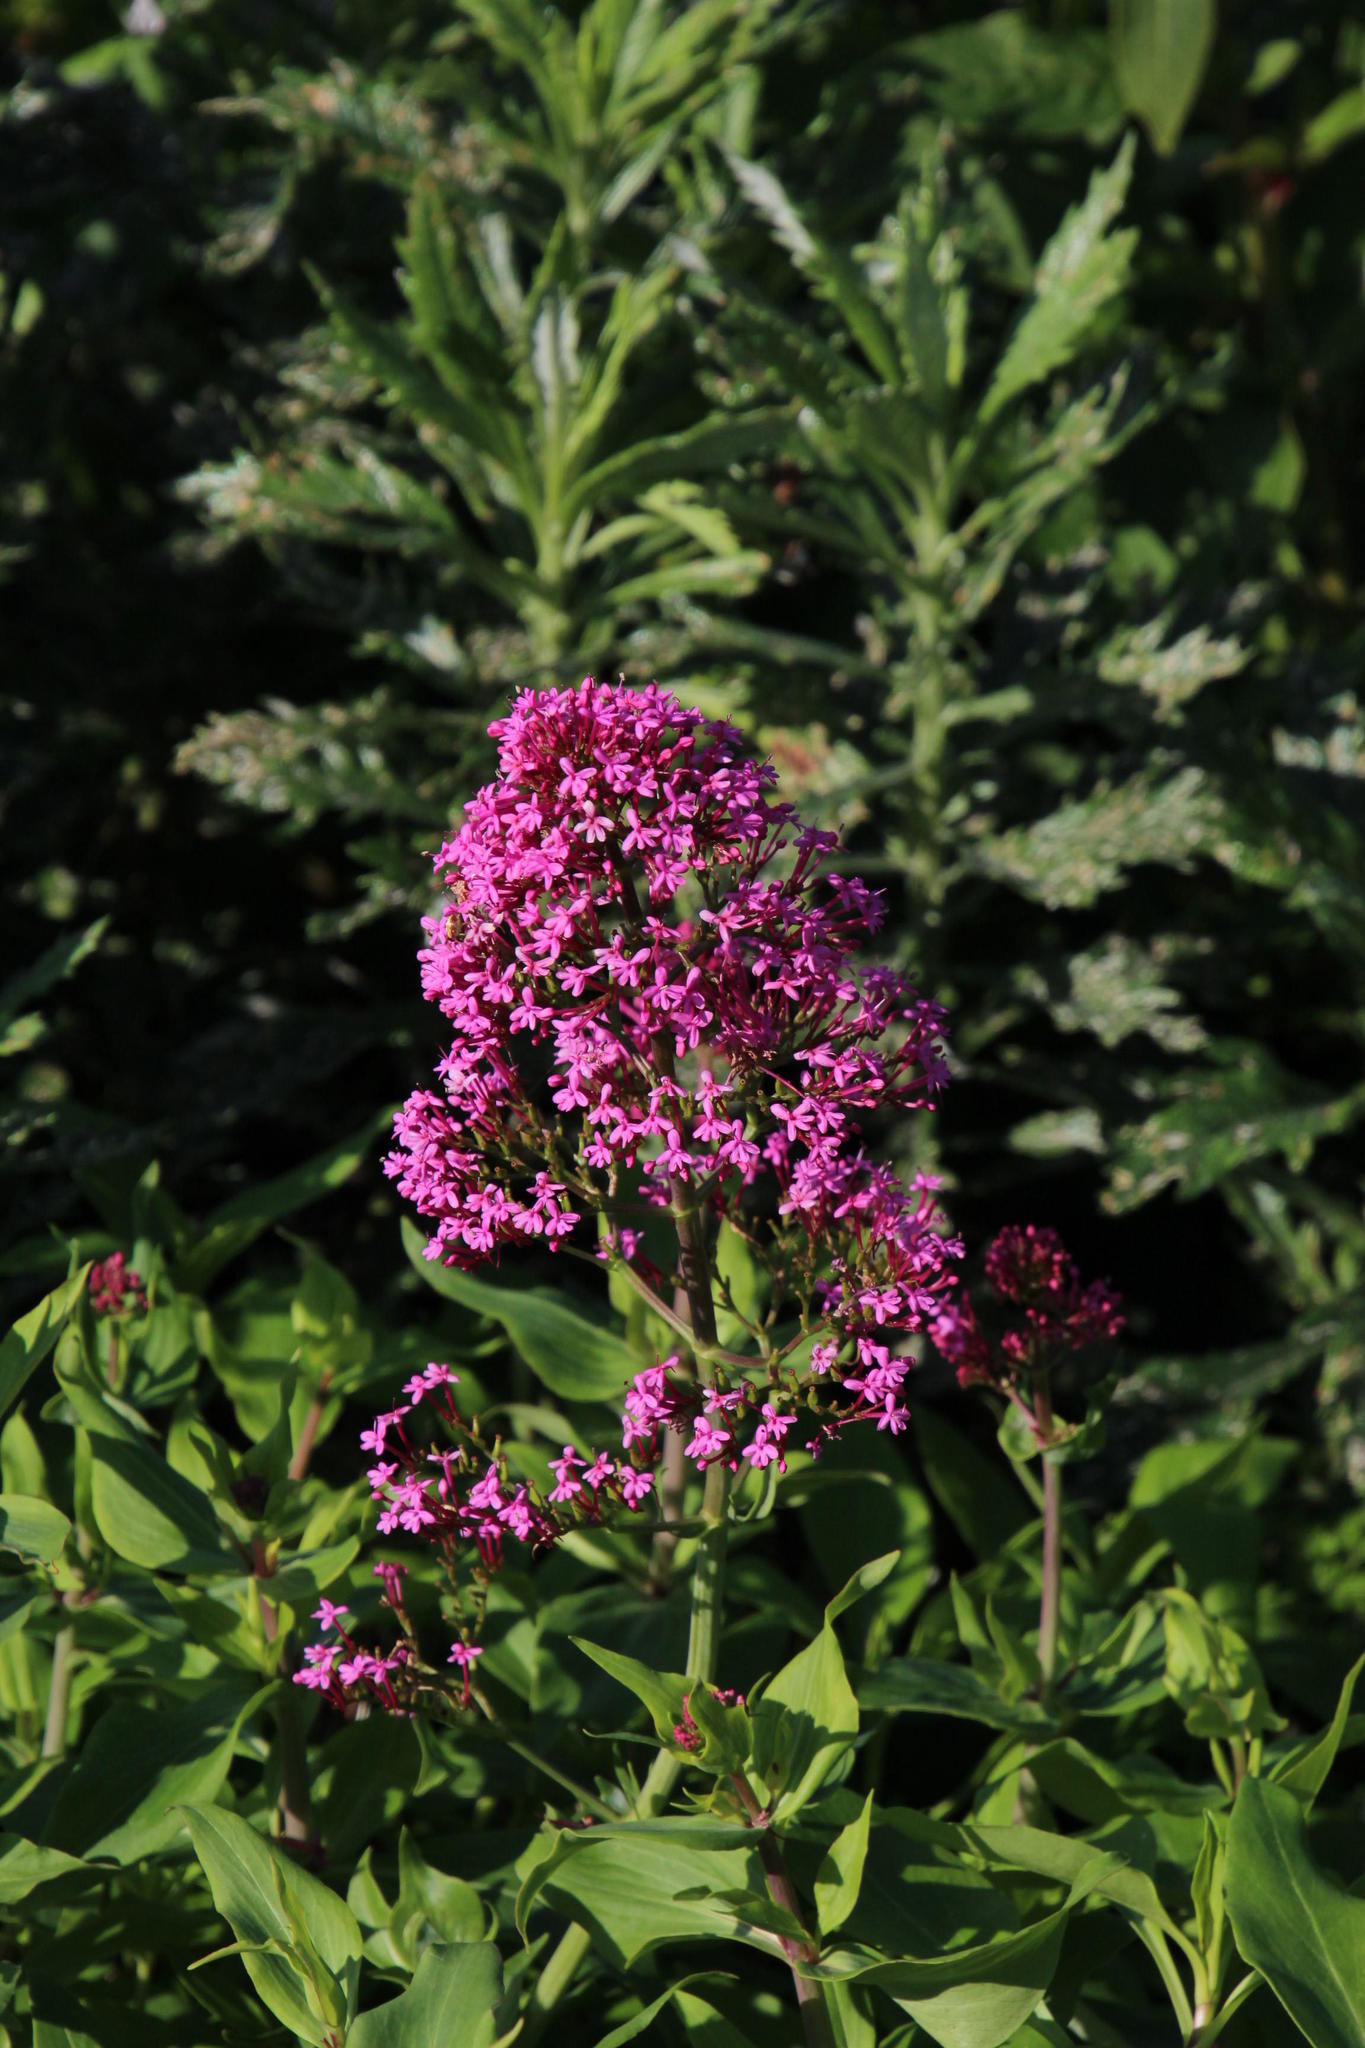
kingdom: Plantae
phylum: Tracheophyta
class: Magnoliopsida
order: Dipsacales
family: Caprifoliaceae
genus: Centranthus
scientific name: Centranthus ruber
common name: Red valerian
